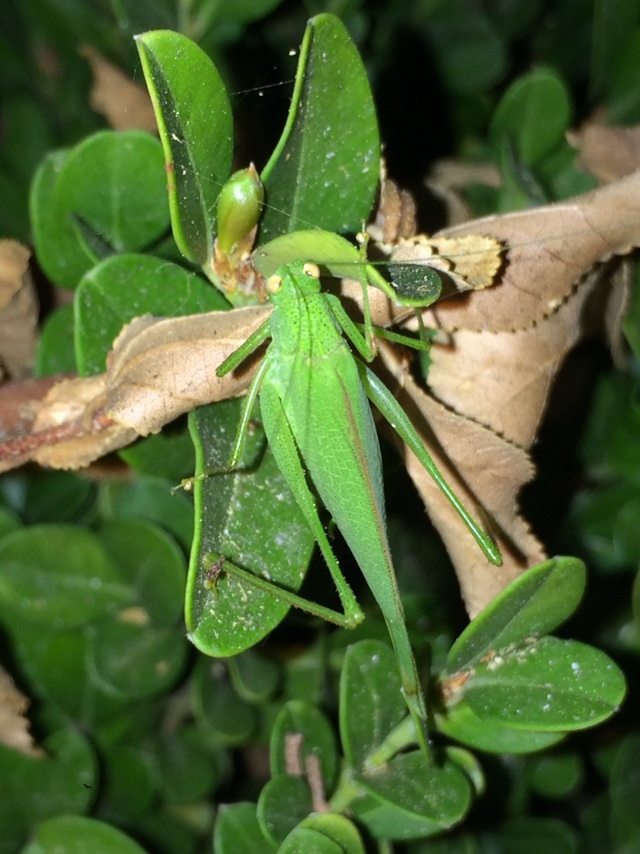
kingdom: Animalia
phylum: Arthropoda
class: Insecta
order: Orthoptera
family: Tettigoniidae
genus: Phaneroptera
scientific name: Phaneroptera nana
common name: Southern sickle bush-cricket
